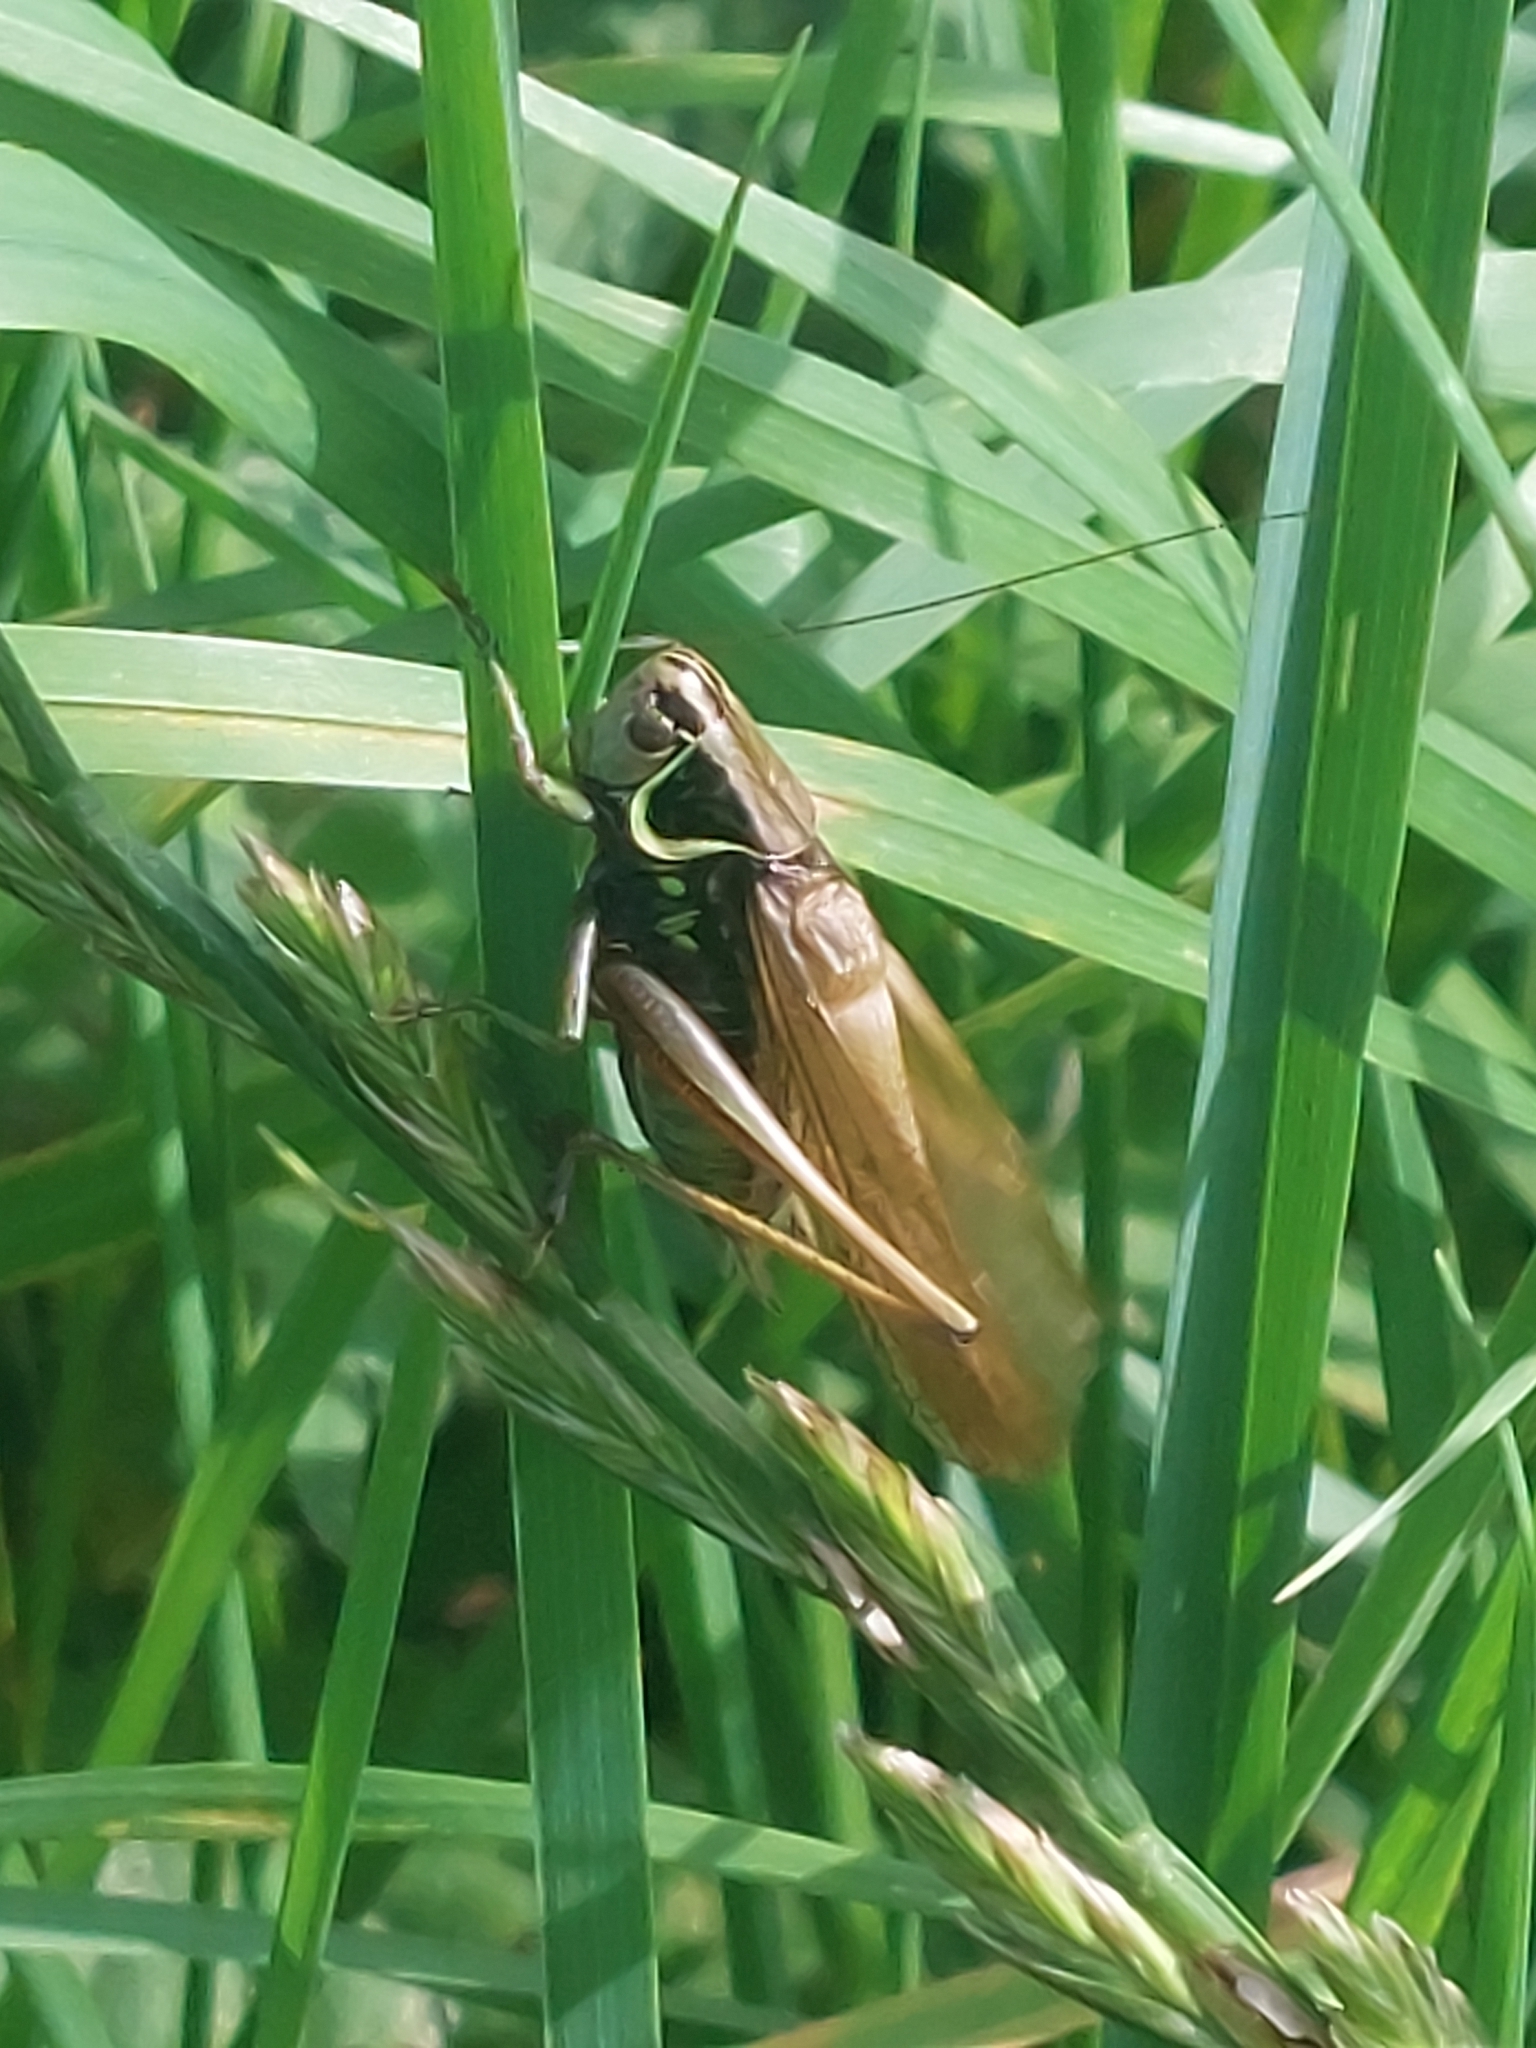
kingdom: Animalia
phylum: Arthropoda
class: Insecta
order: Orthoptera
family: Tettigoniidae
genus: Roeseliana
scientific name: Roeseliana roeselii
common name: Roesel's bush cricket
